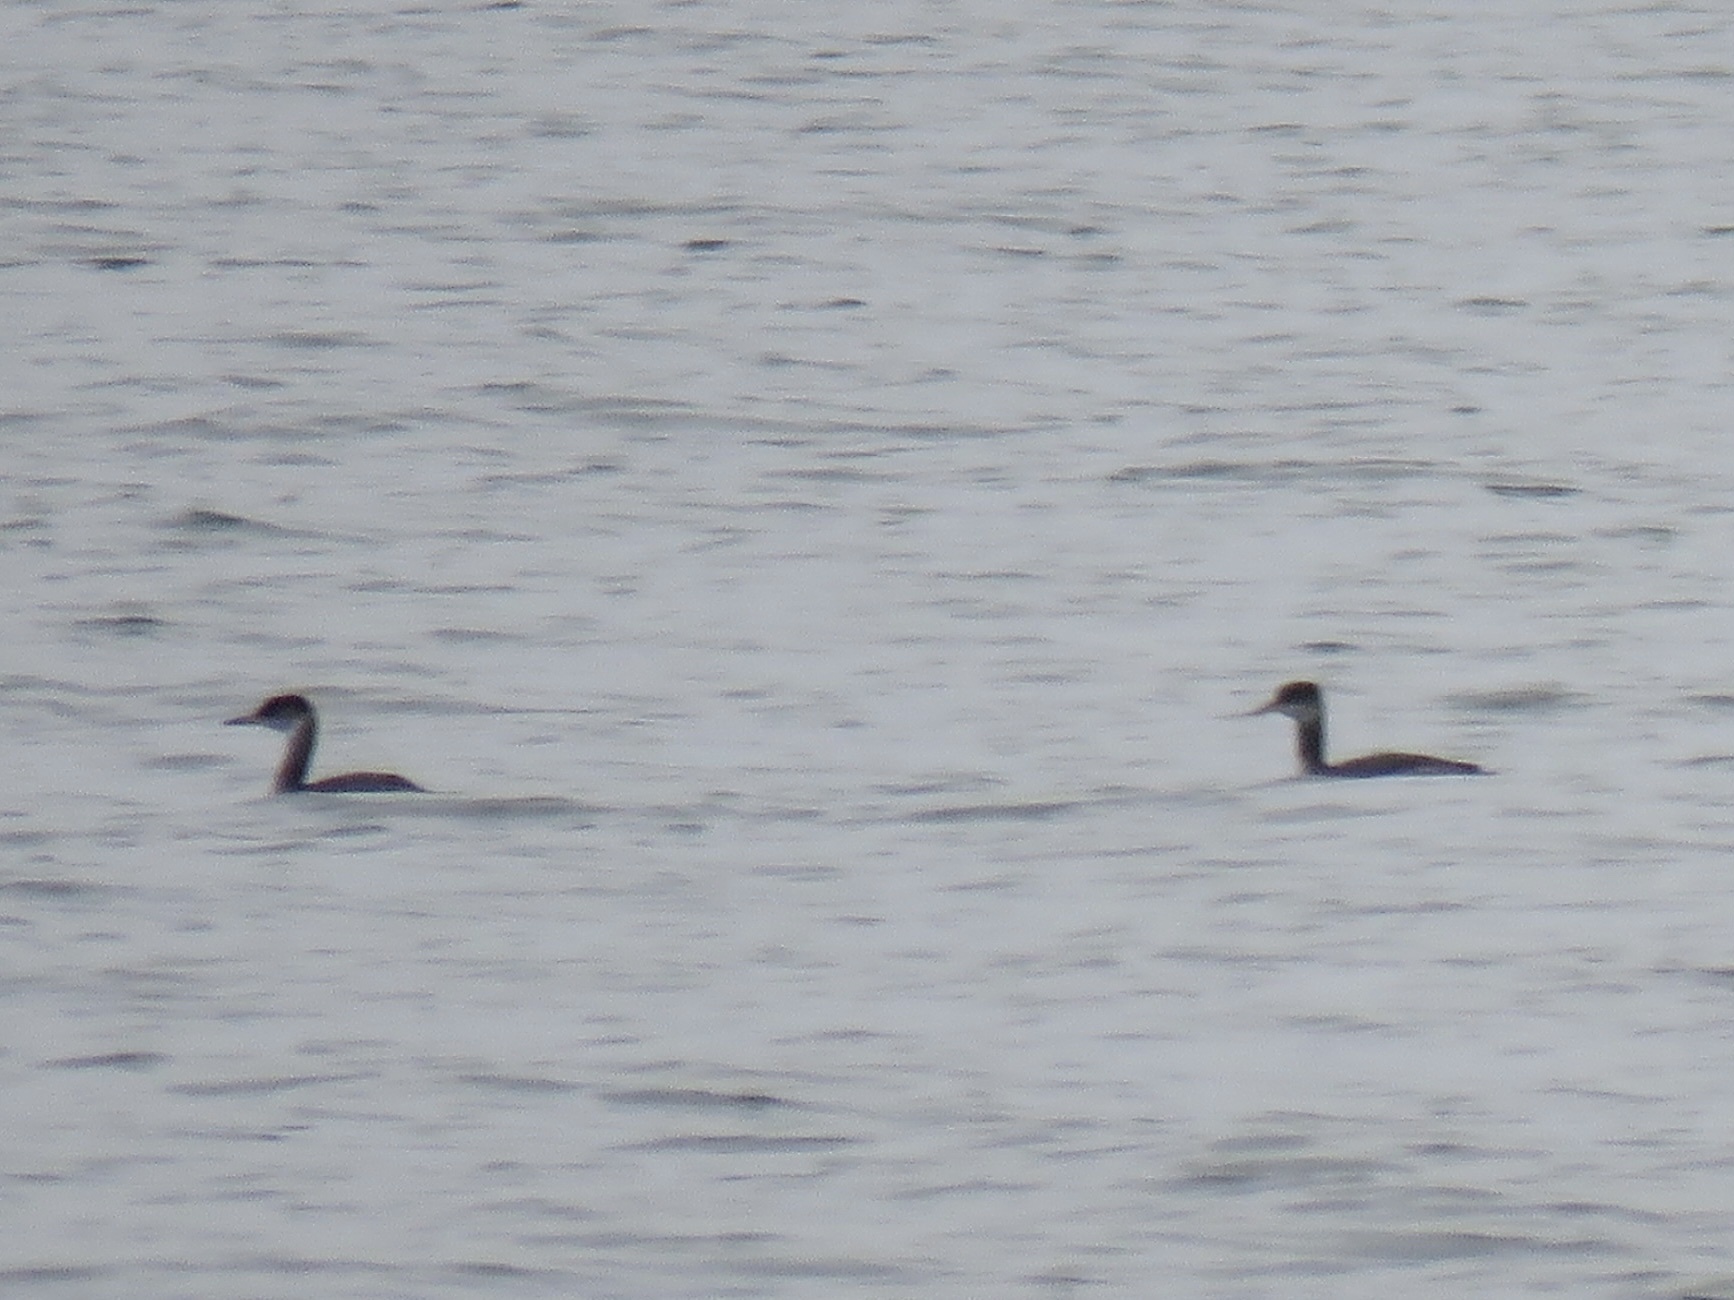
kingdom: Animalia
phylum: Chordata
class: Aves
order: Podicipediformes
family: Podicipedidae
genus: Podiceps
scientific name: Podiceps grisegena
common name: Red-necked grebe
